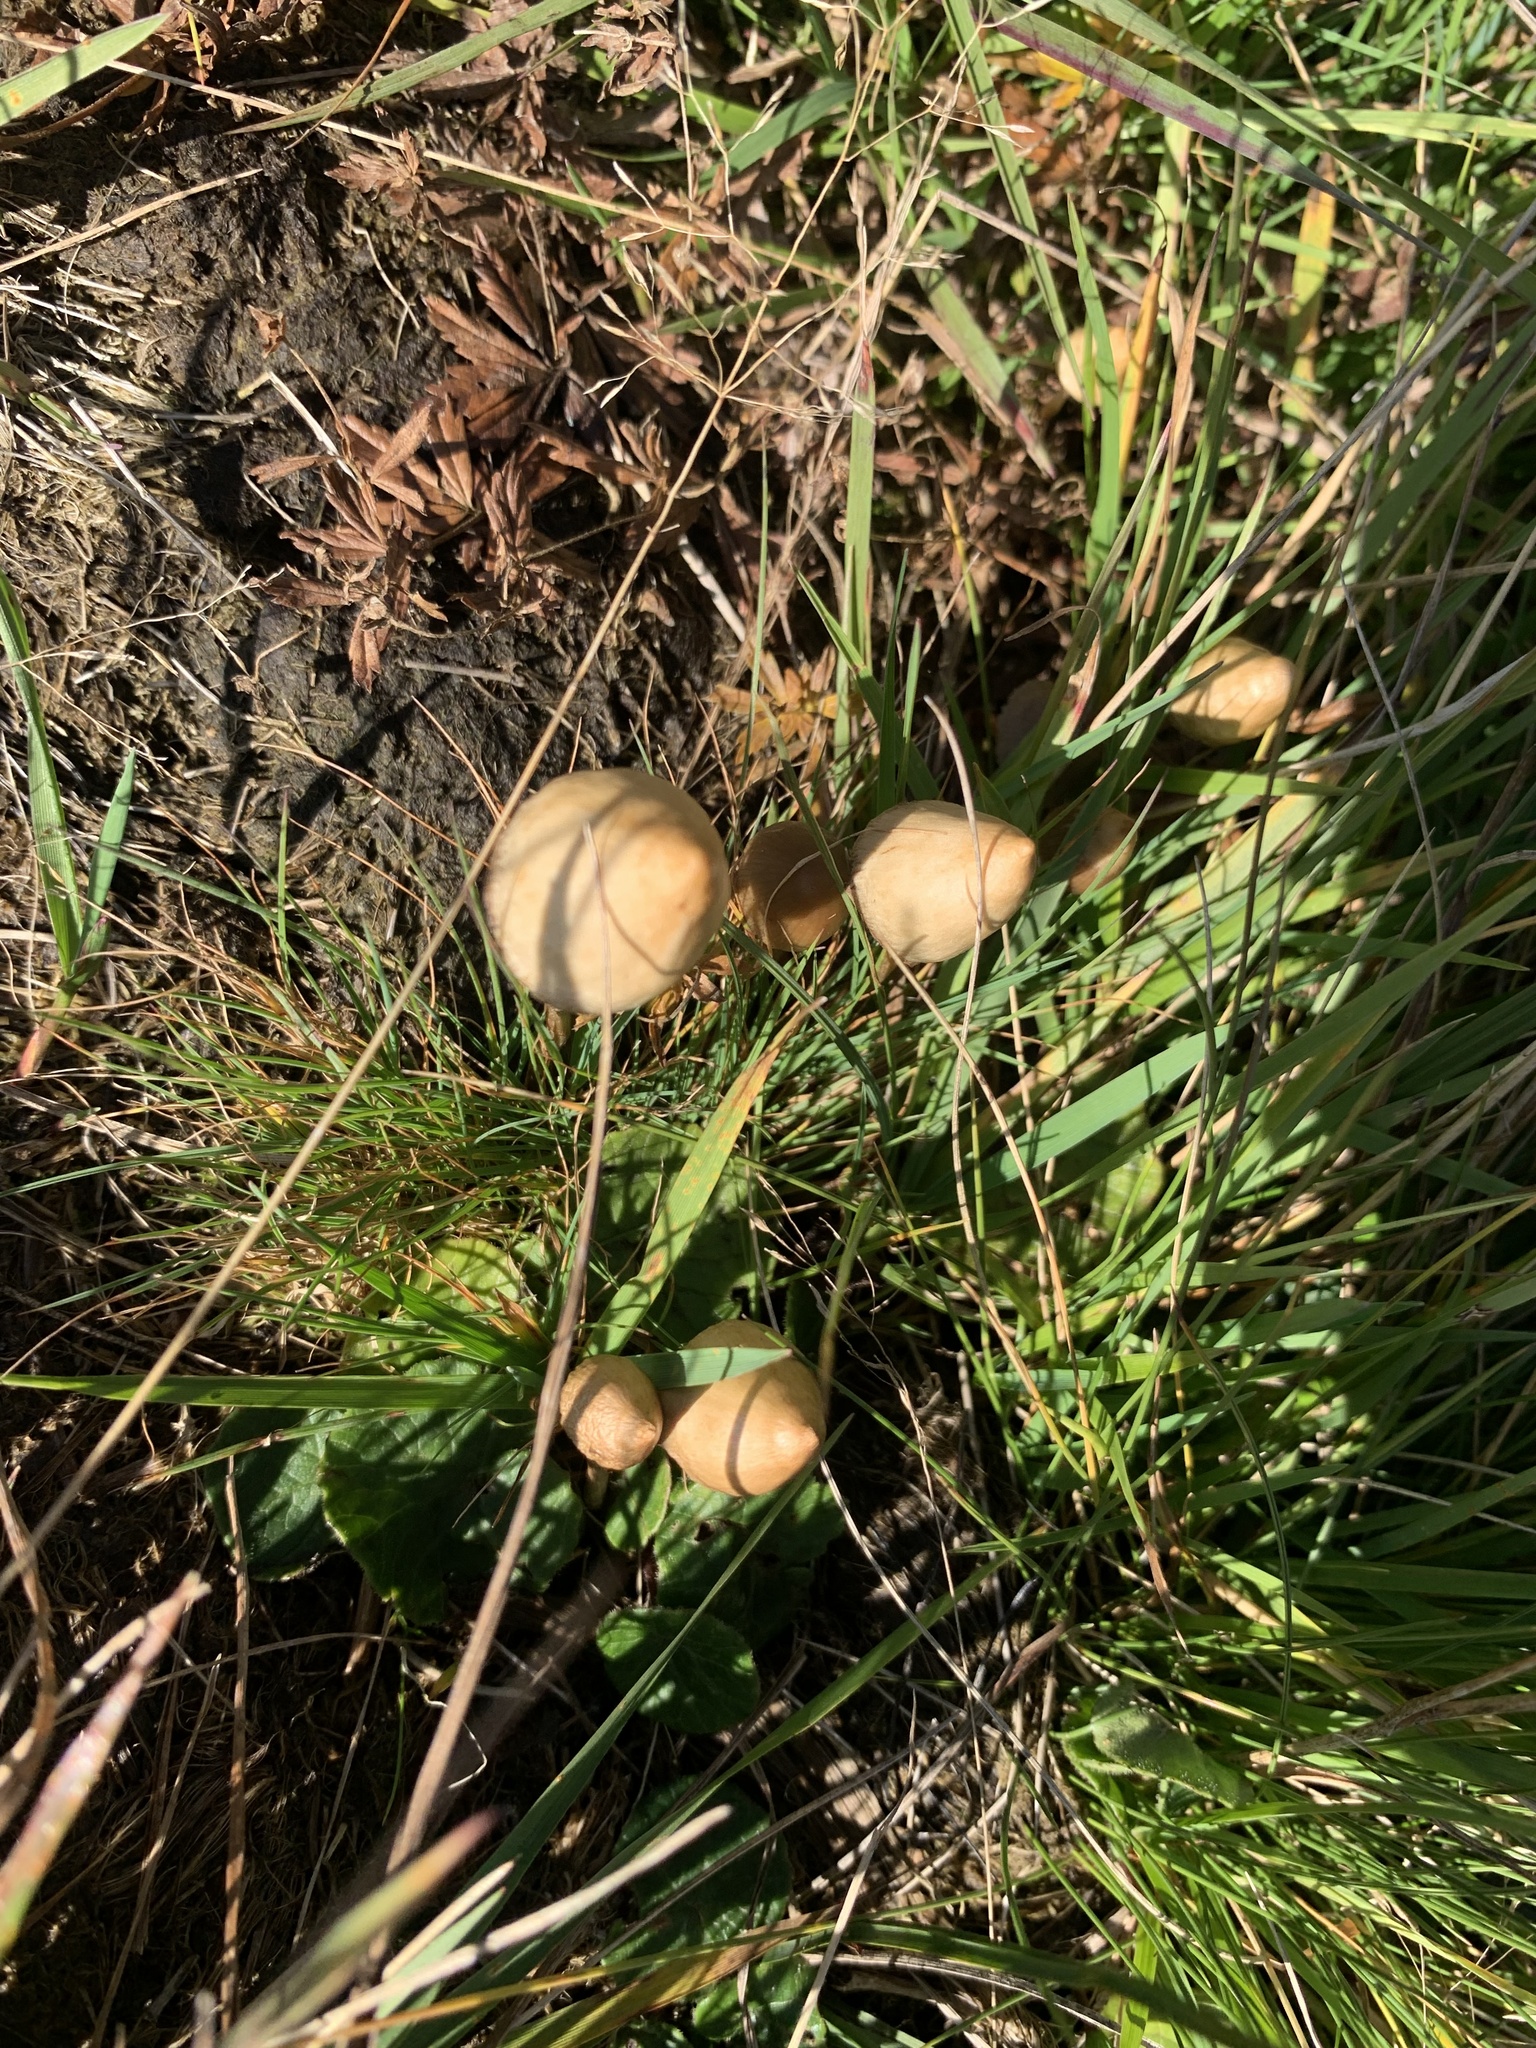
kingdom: Fungi
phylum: Basidiomycota
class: Agaricomycetes
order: Agaricales
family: Hymenogastraceae
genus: Psilocybe
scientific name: Psilocybe semilanceata
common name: Liberty cap
